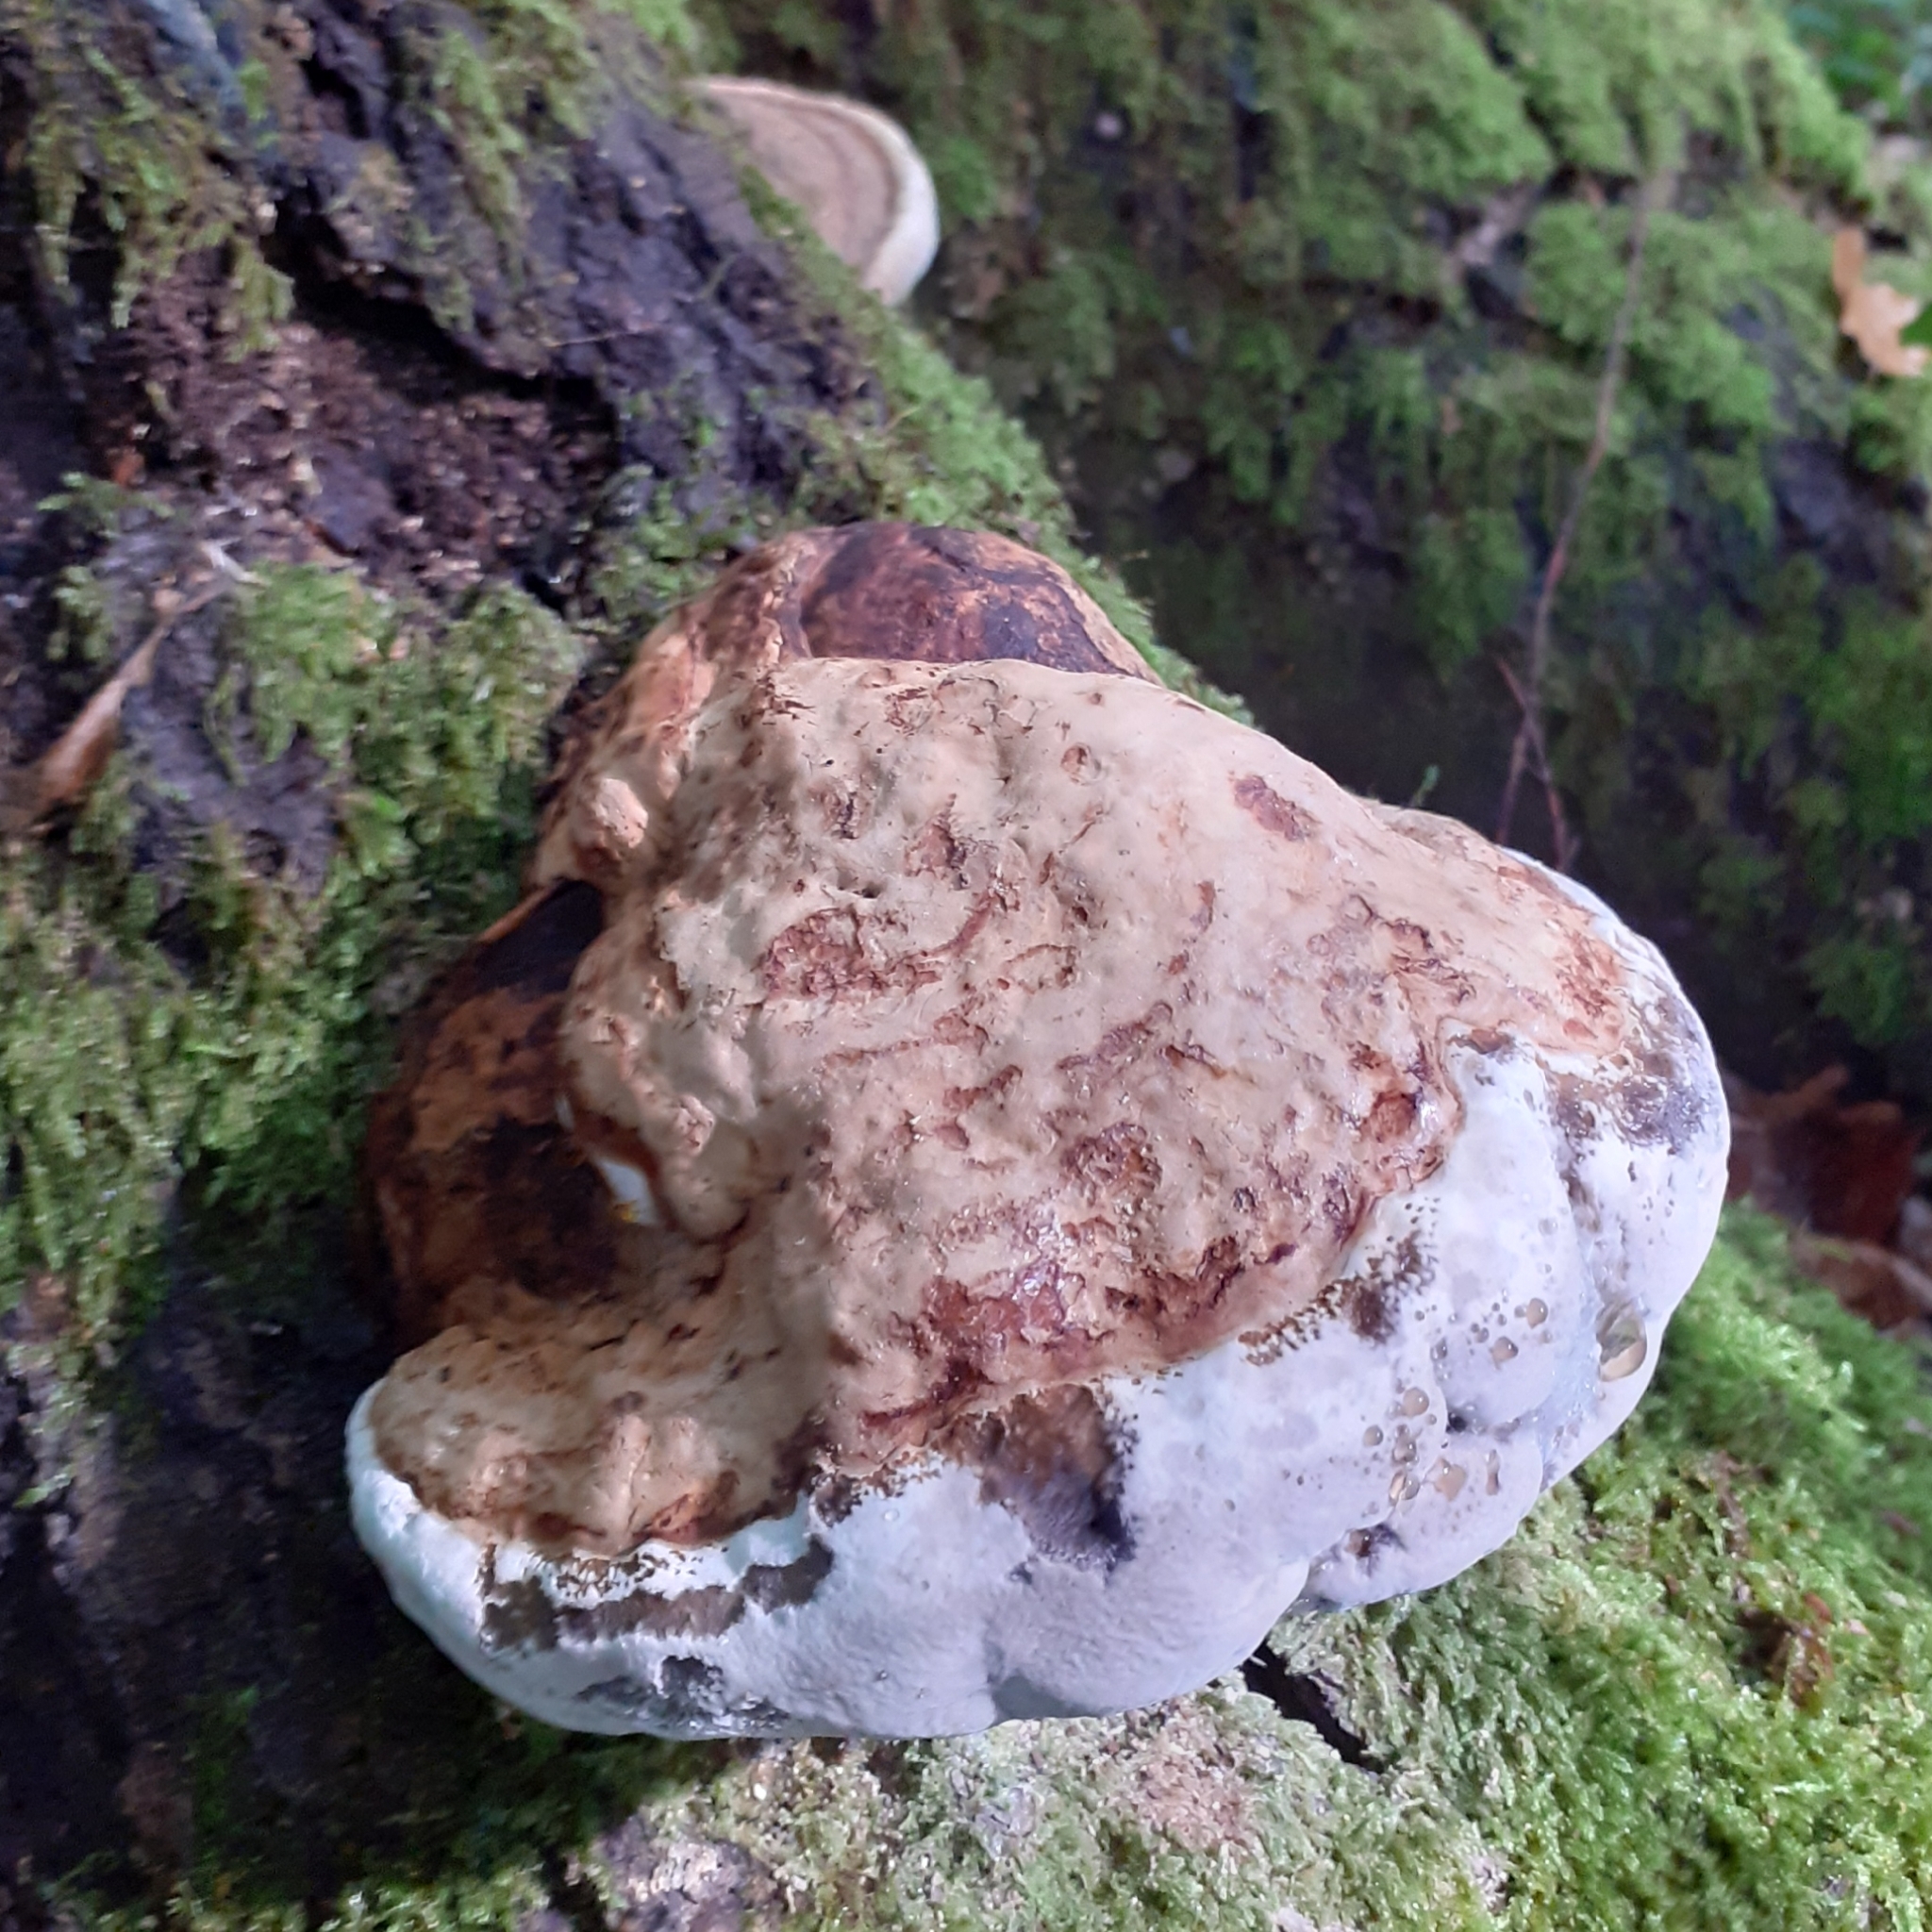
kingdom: Fungi
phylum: Basidiomycota
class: Agaricomycetes
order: Polyporales
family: Polyporaceae
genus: Fomes
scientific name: Fomes fomentarius
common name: Hoof fungus
